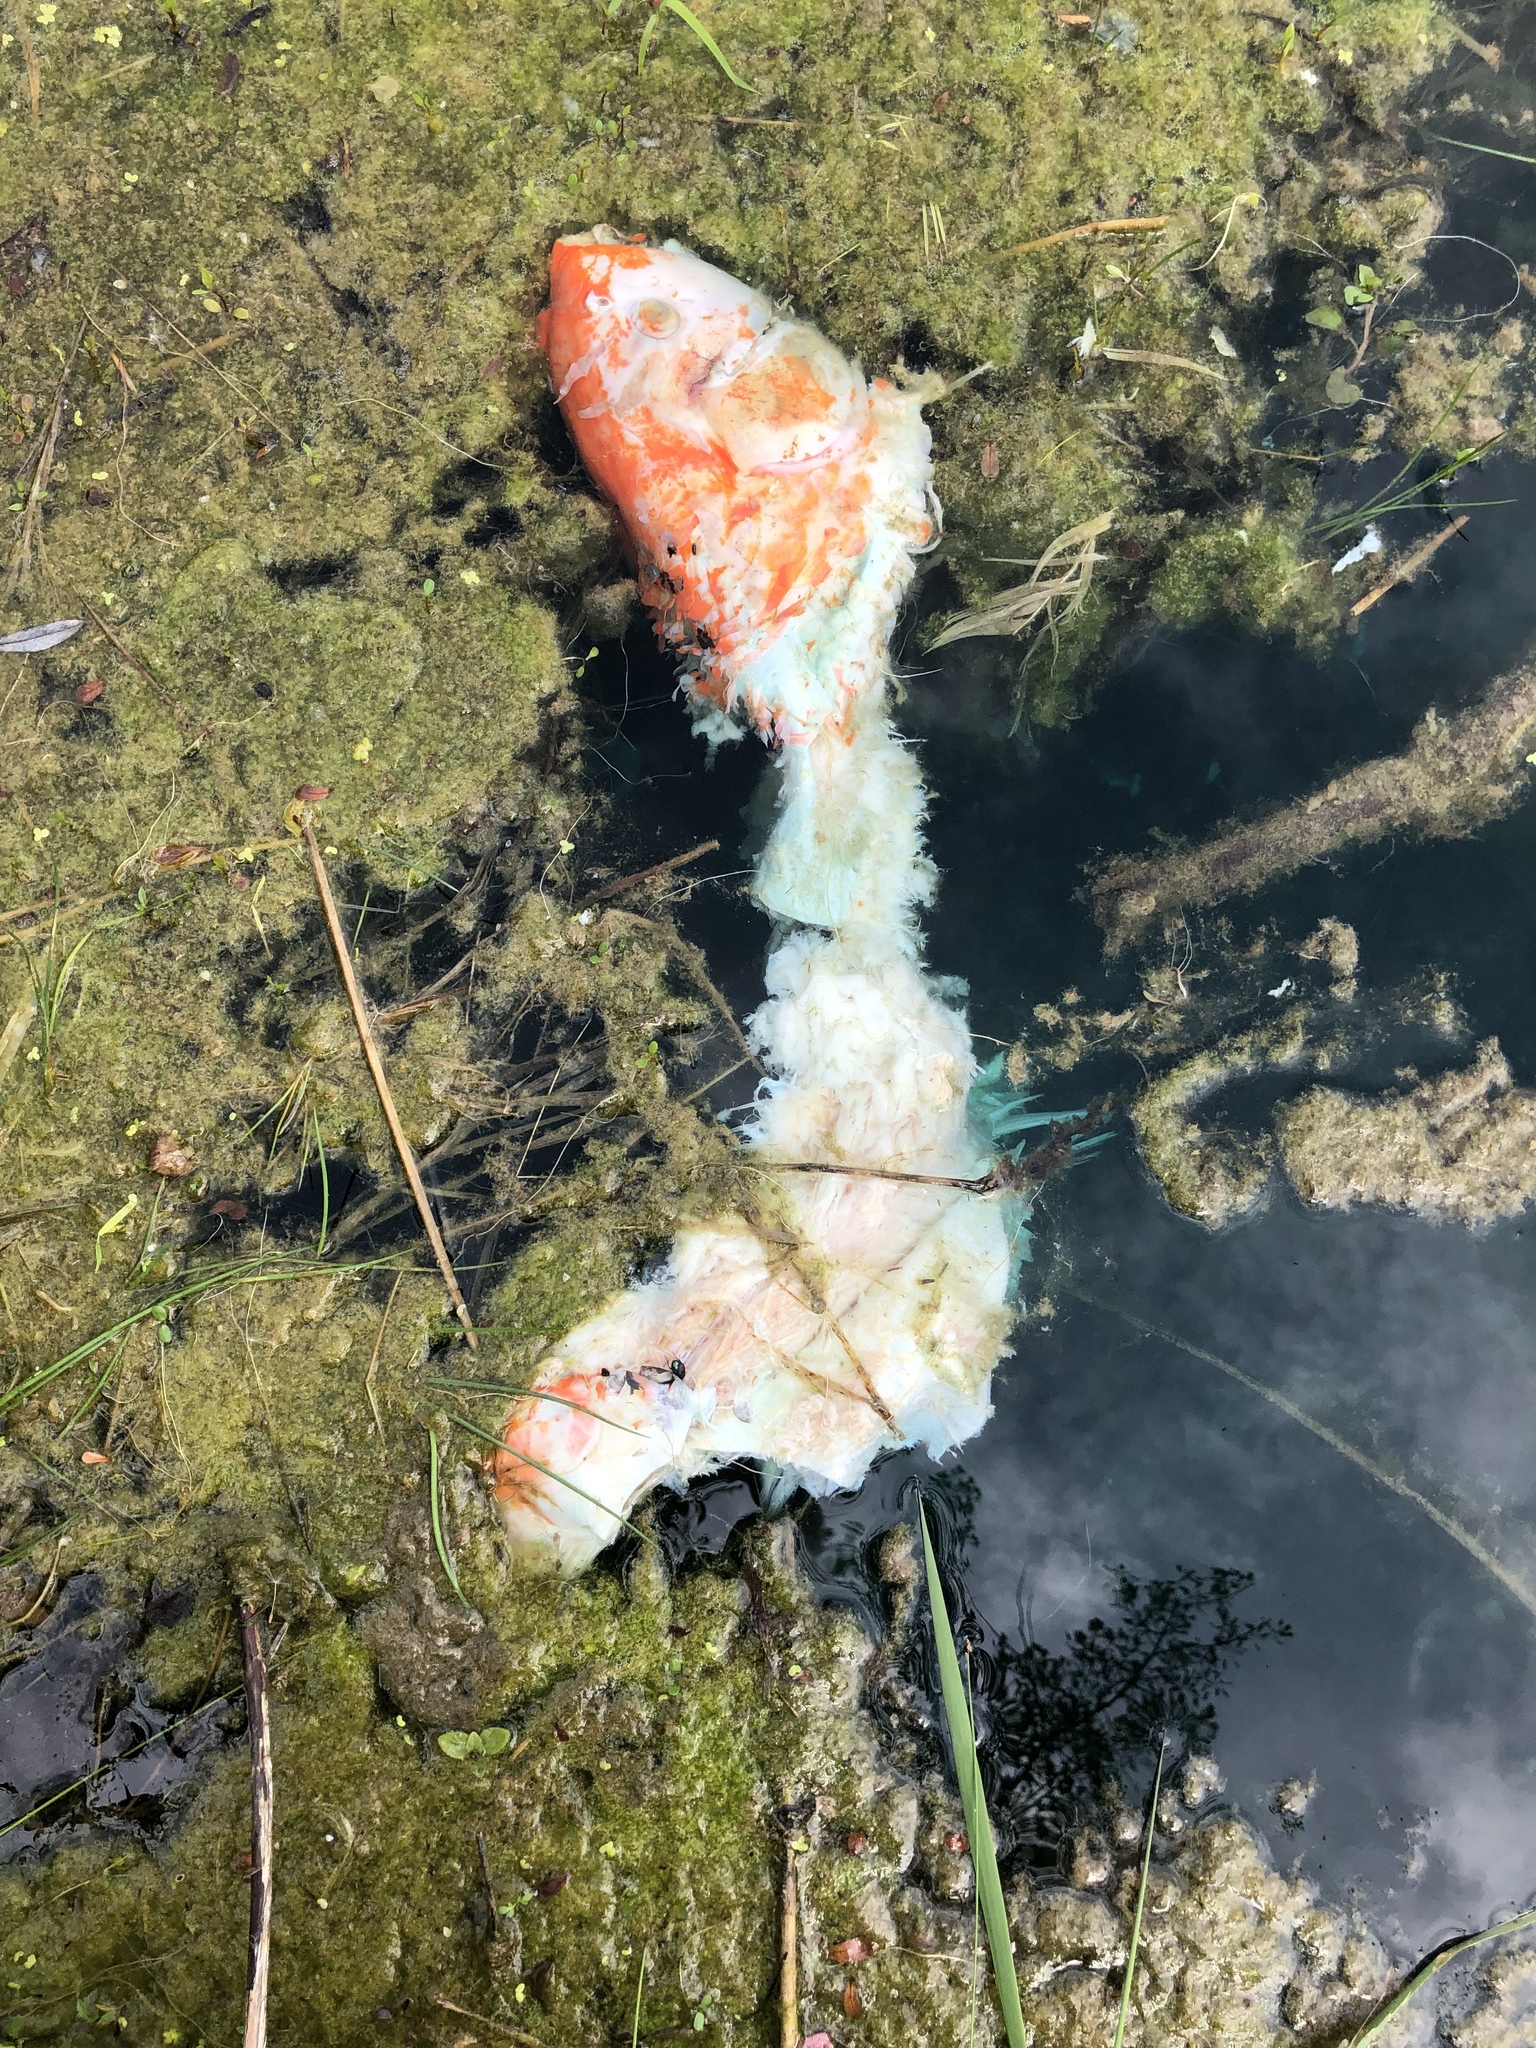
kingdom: Animalia
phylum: Chordata
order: Cypriniformes
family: Cyprinidae
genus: Cyprinus
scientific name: Cyprinus rubrofuscus
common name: Koi
